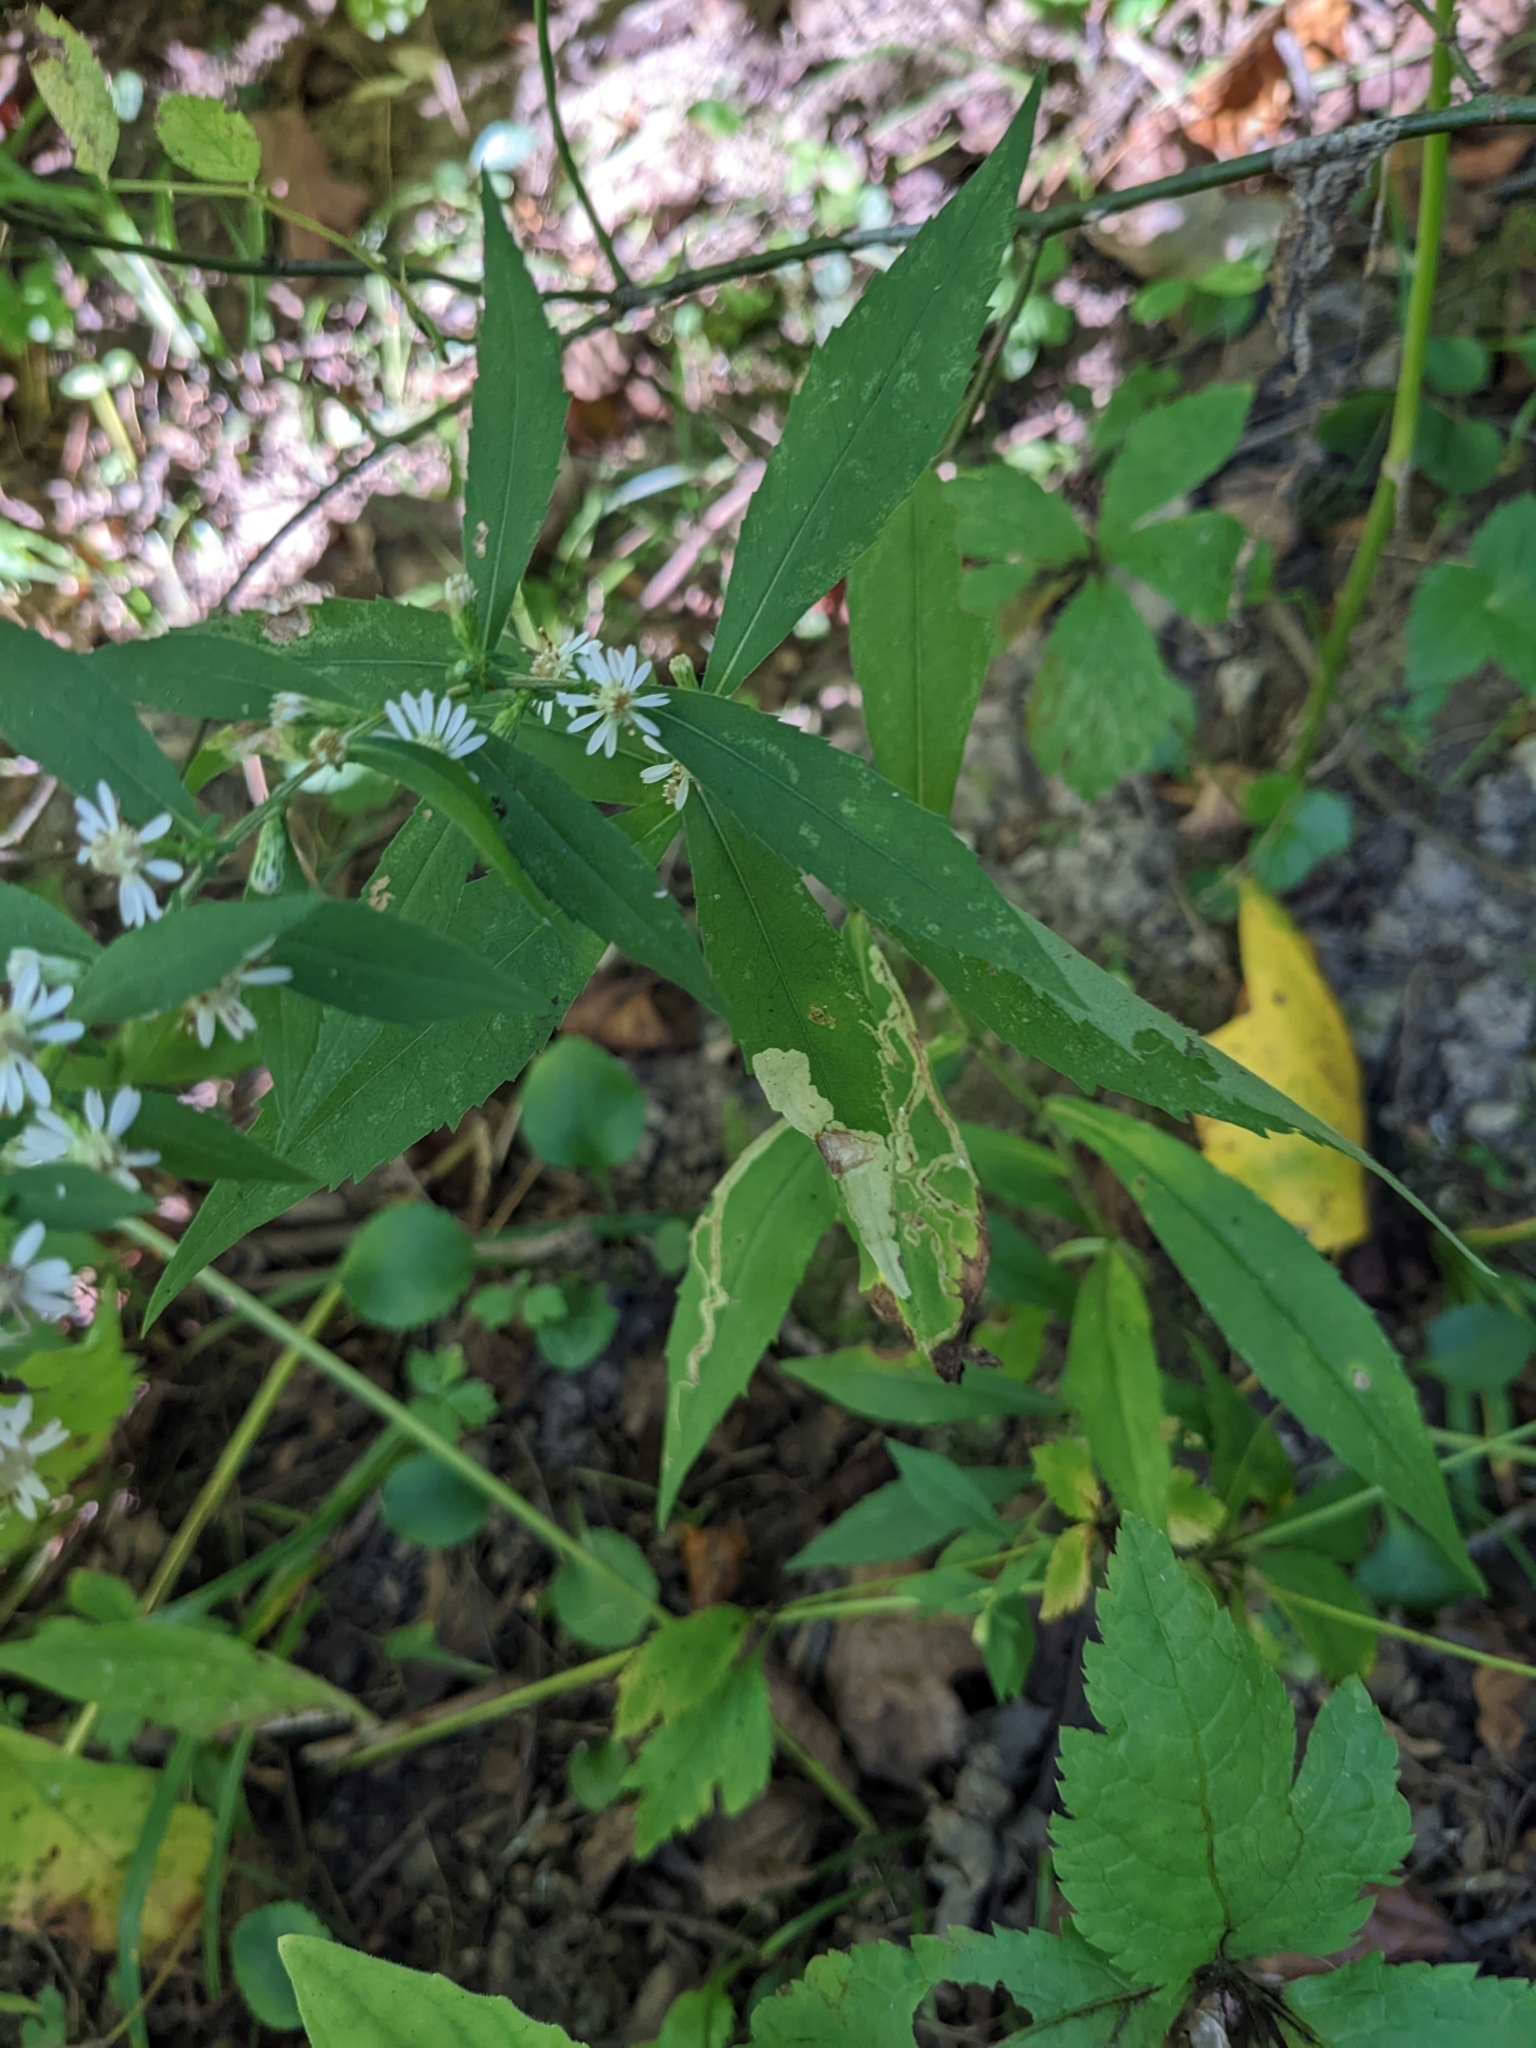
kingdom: Plantae
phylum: Tracheophyta
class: Magnoliopsida
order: Asterales
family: Asteraceae
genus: Symphyotrichum
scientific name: Symphyotrichum lateriflorum
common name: Calico aster
